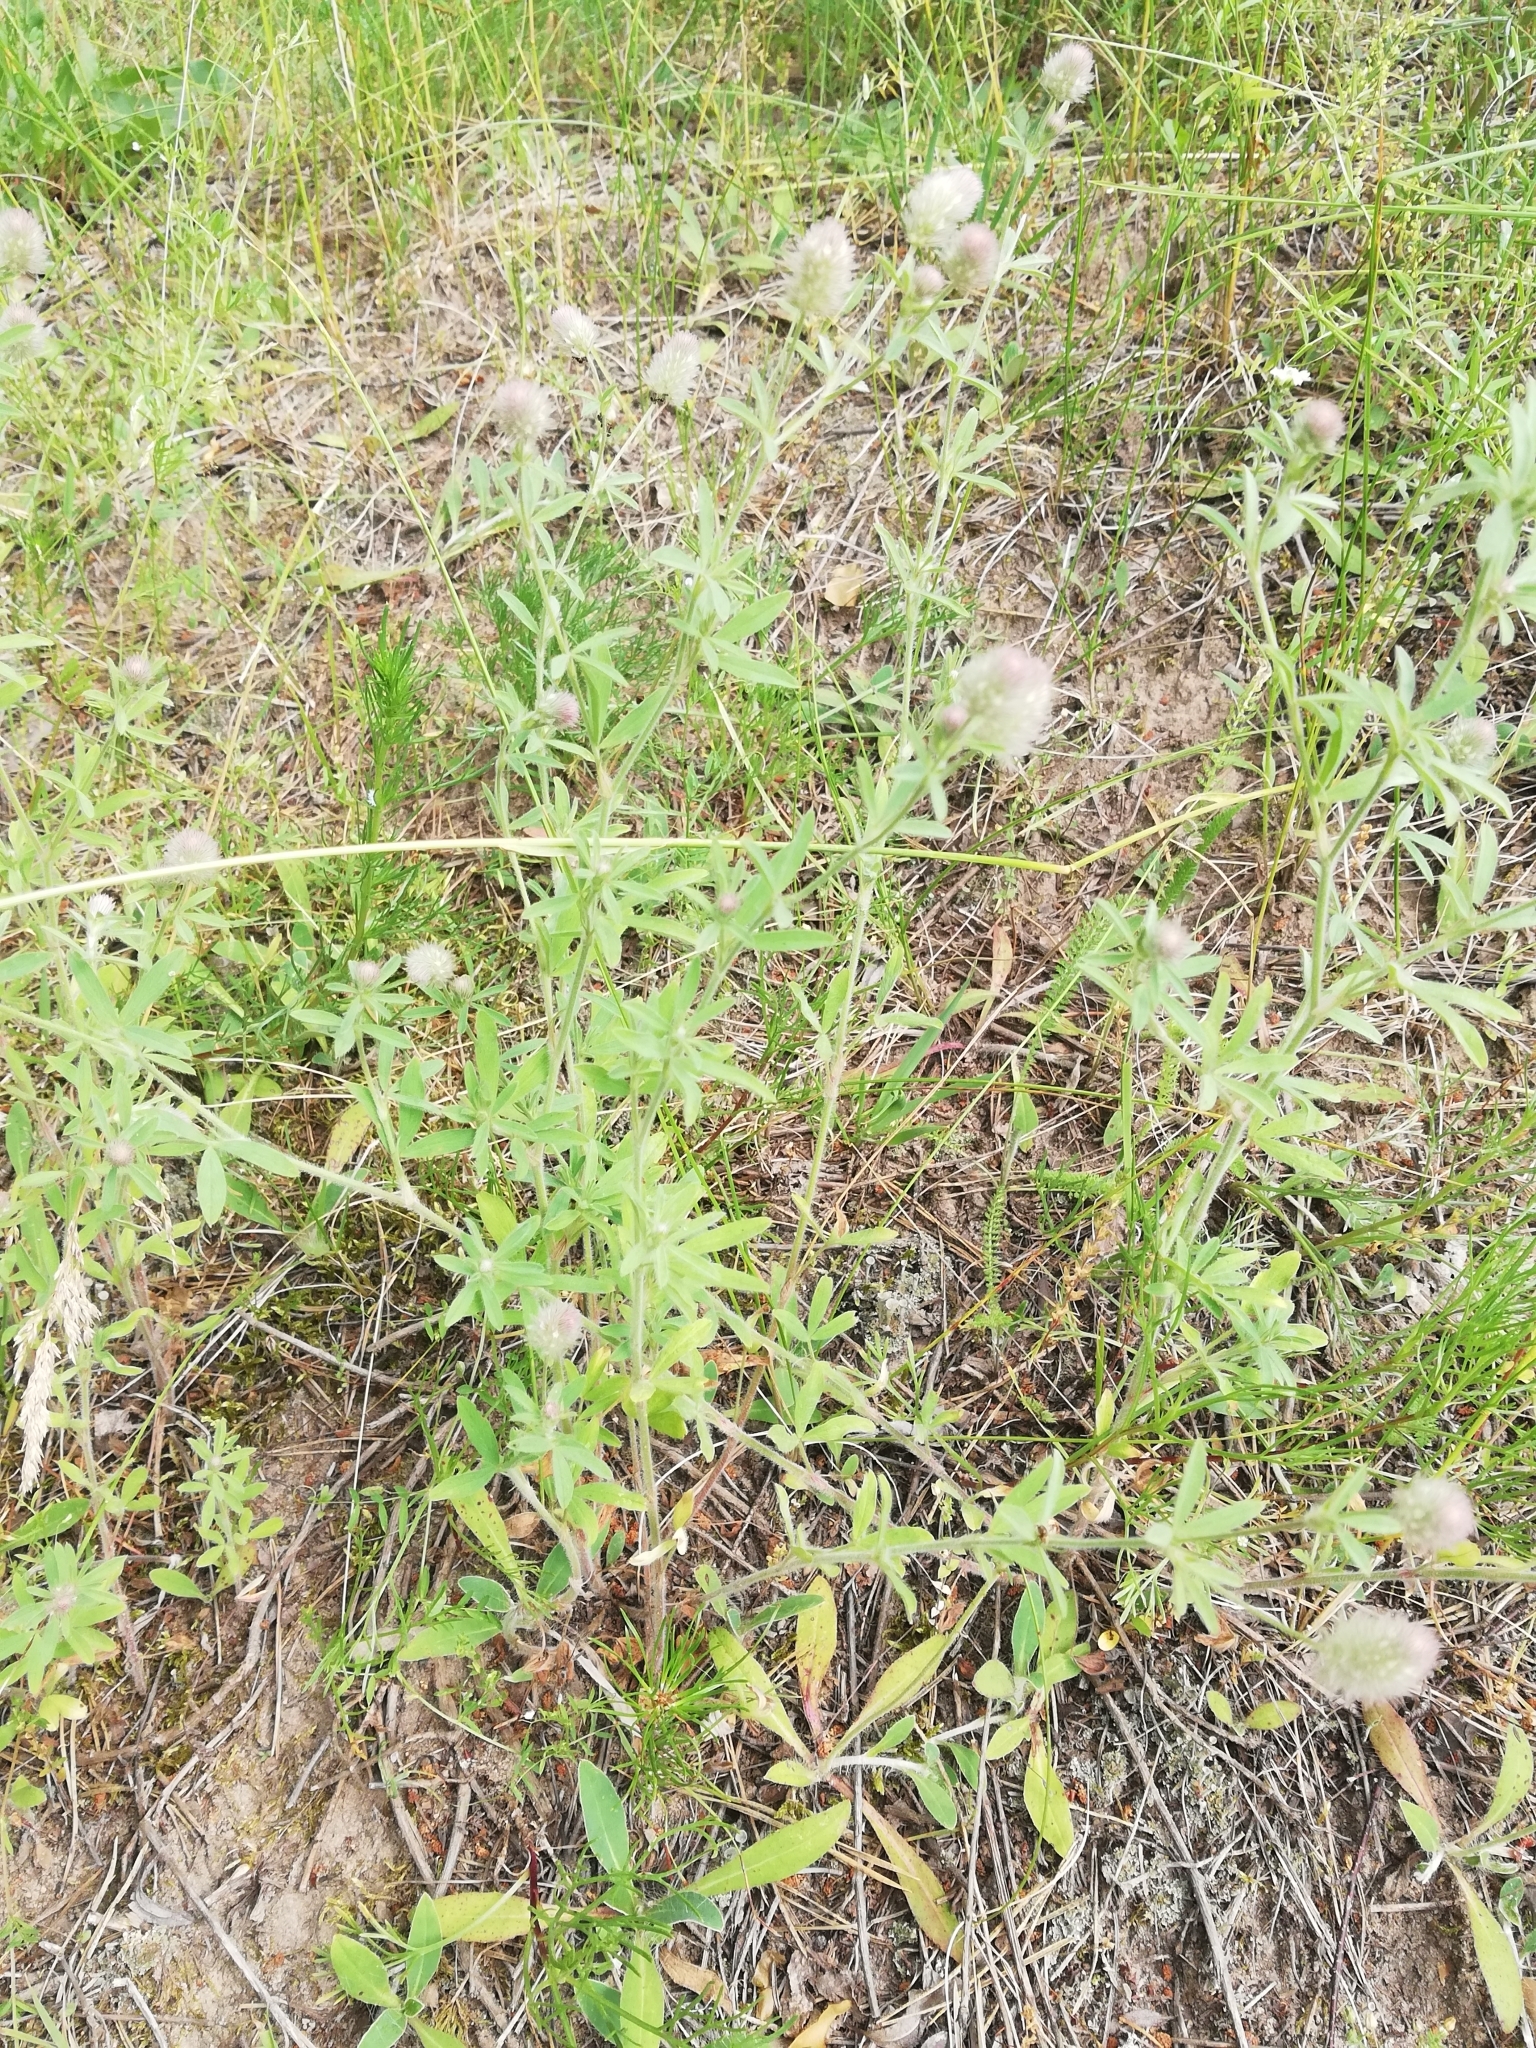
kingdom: Plantae
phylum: Tracheophyta
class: Magnoliopsida
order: Fabales
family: Fabaceae
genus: Trifolium
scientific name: Trifolium arvense
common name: Hare's-foot clover
